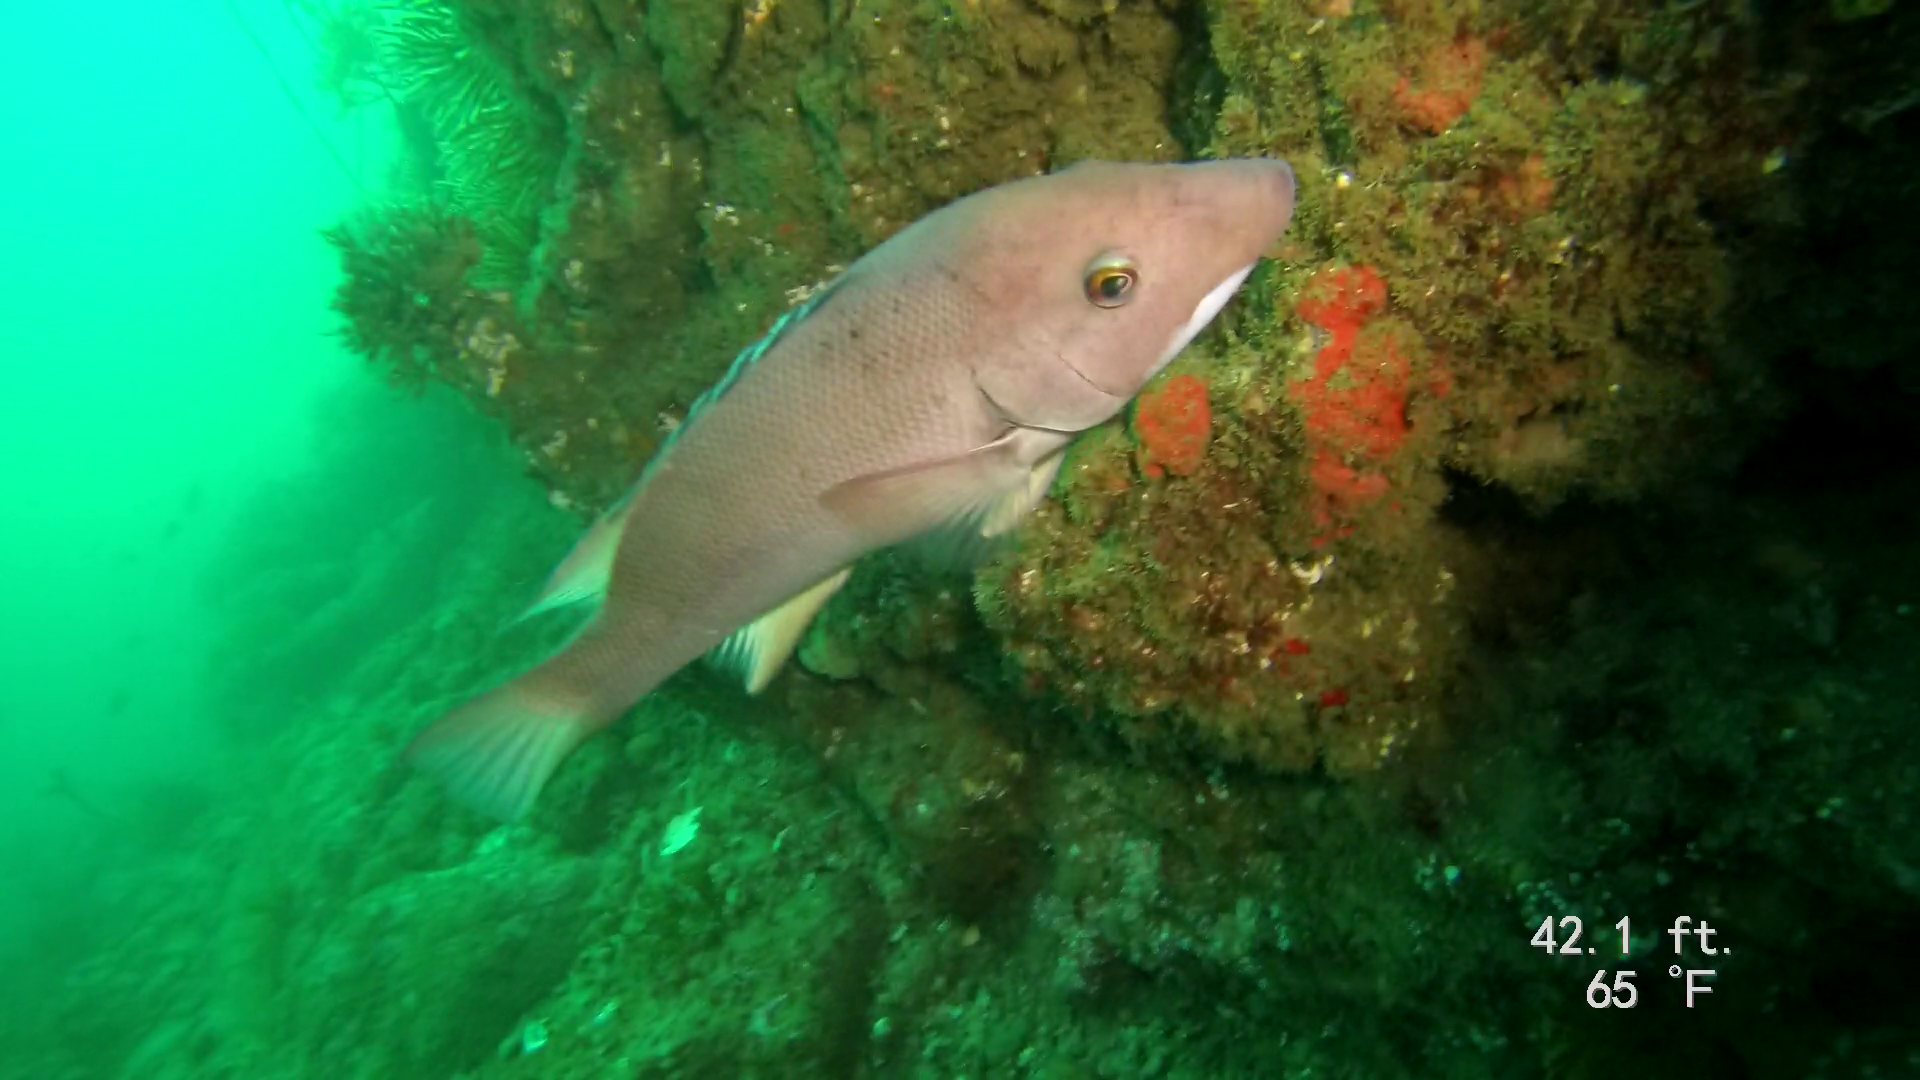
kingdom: Animalia
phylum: Chordata
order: Perciformes
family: Labridae
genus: Semicossyphus
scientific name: Semicossyphus pulcher
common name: California sheephead
